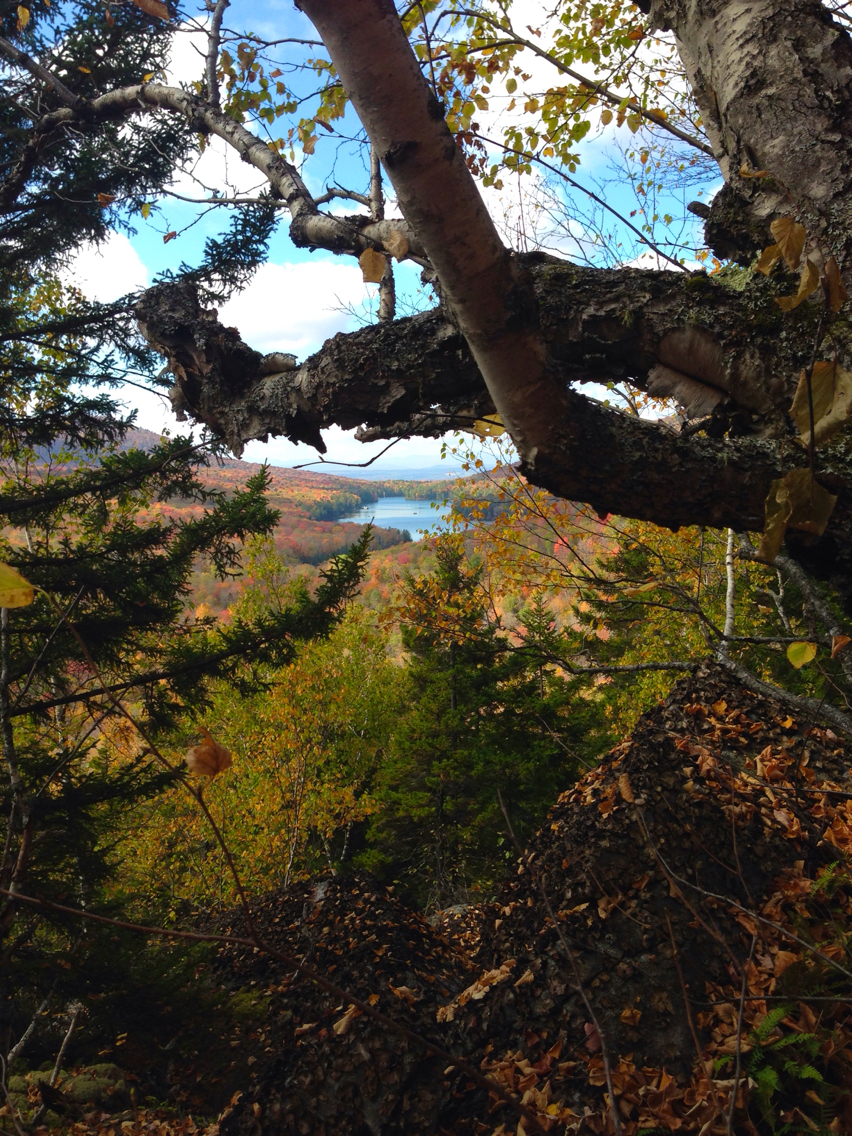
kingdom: Plantae
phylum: Tracheophyta
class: Magnoliopsida
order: Fagales
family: Betulaceae
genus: Betula
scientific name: Betula papyrifera
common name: Paper birch
